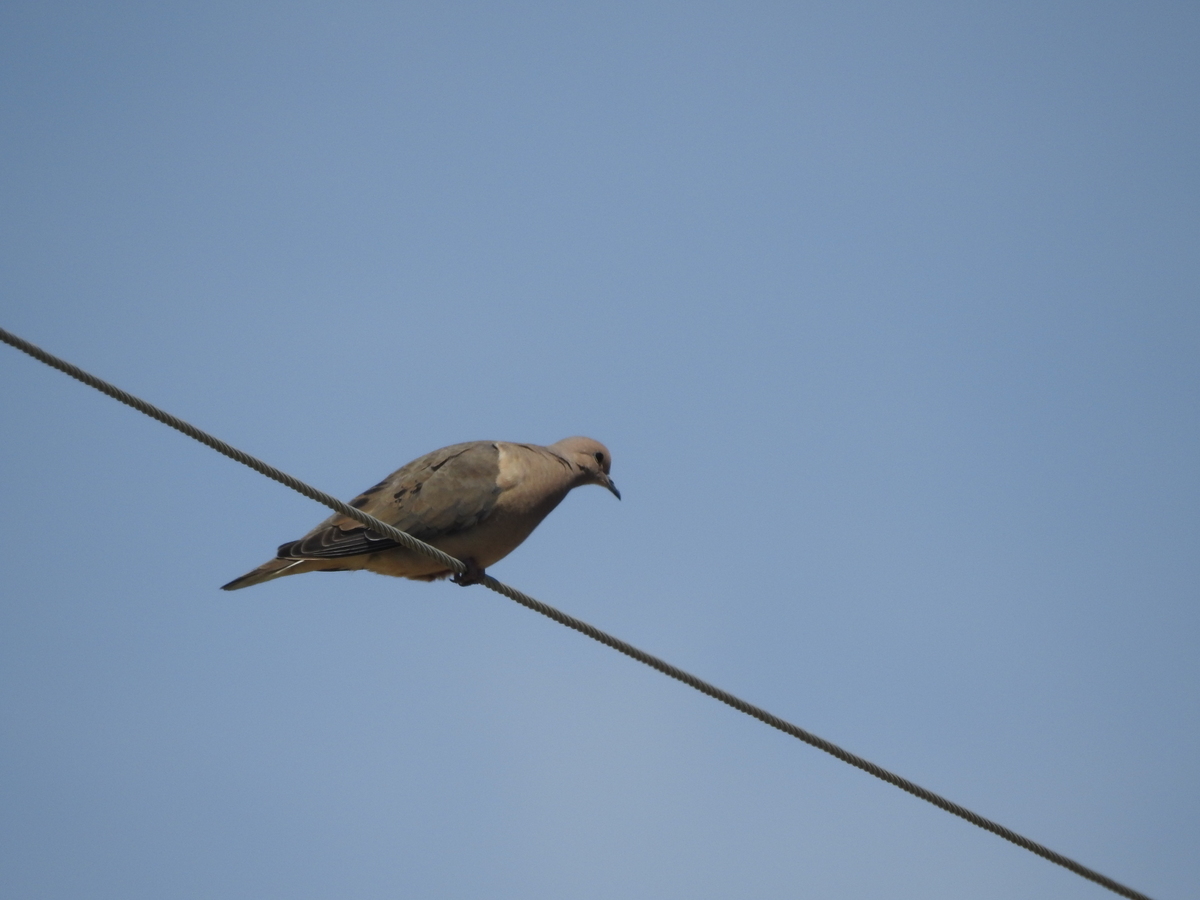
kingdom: Animalia
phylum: Chordata
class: Aves
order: Columbiformes
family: Columbidae
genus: Zenaida
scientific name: Zenaida auriculata
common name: Eared dove
